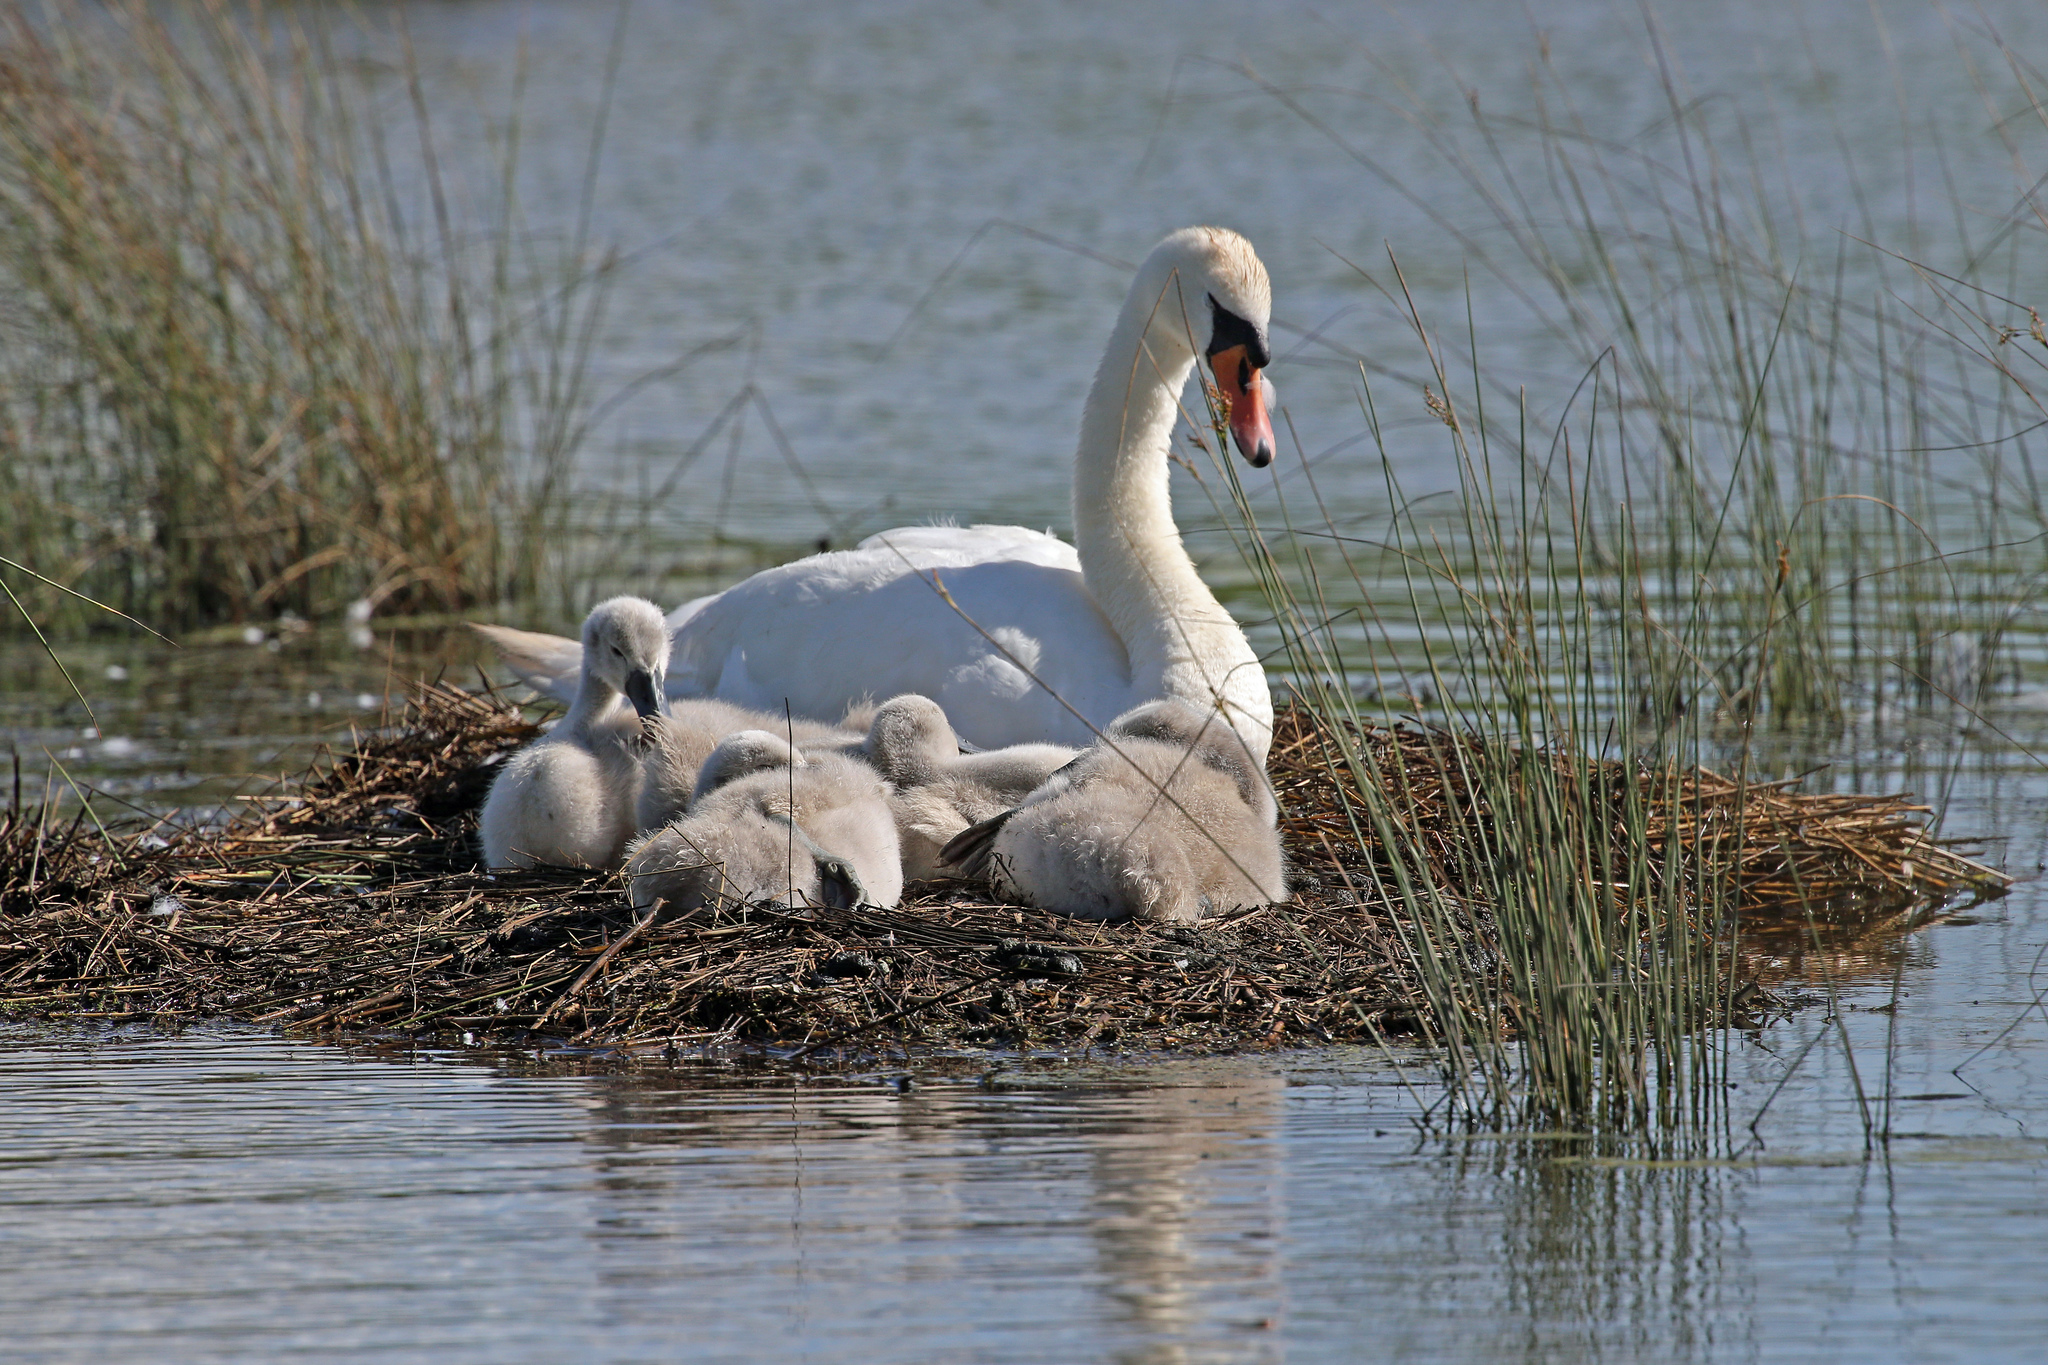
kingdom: Animalia
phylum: Chordata
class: Aves
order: Anseriformes
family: Anatidae
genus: Cygnus
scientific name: Cygnus olor
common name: Mute swan
